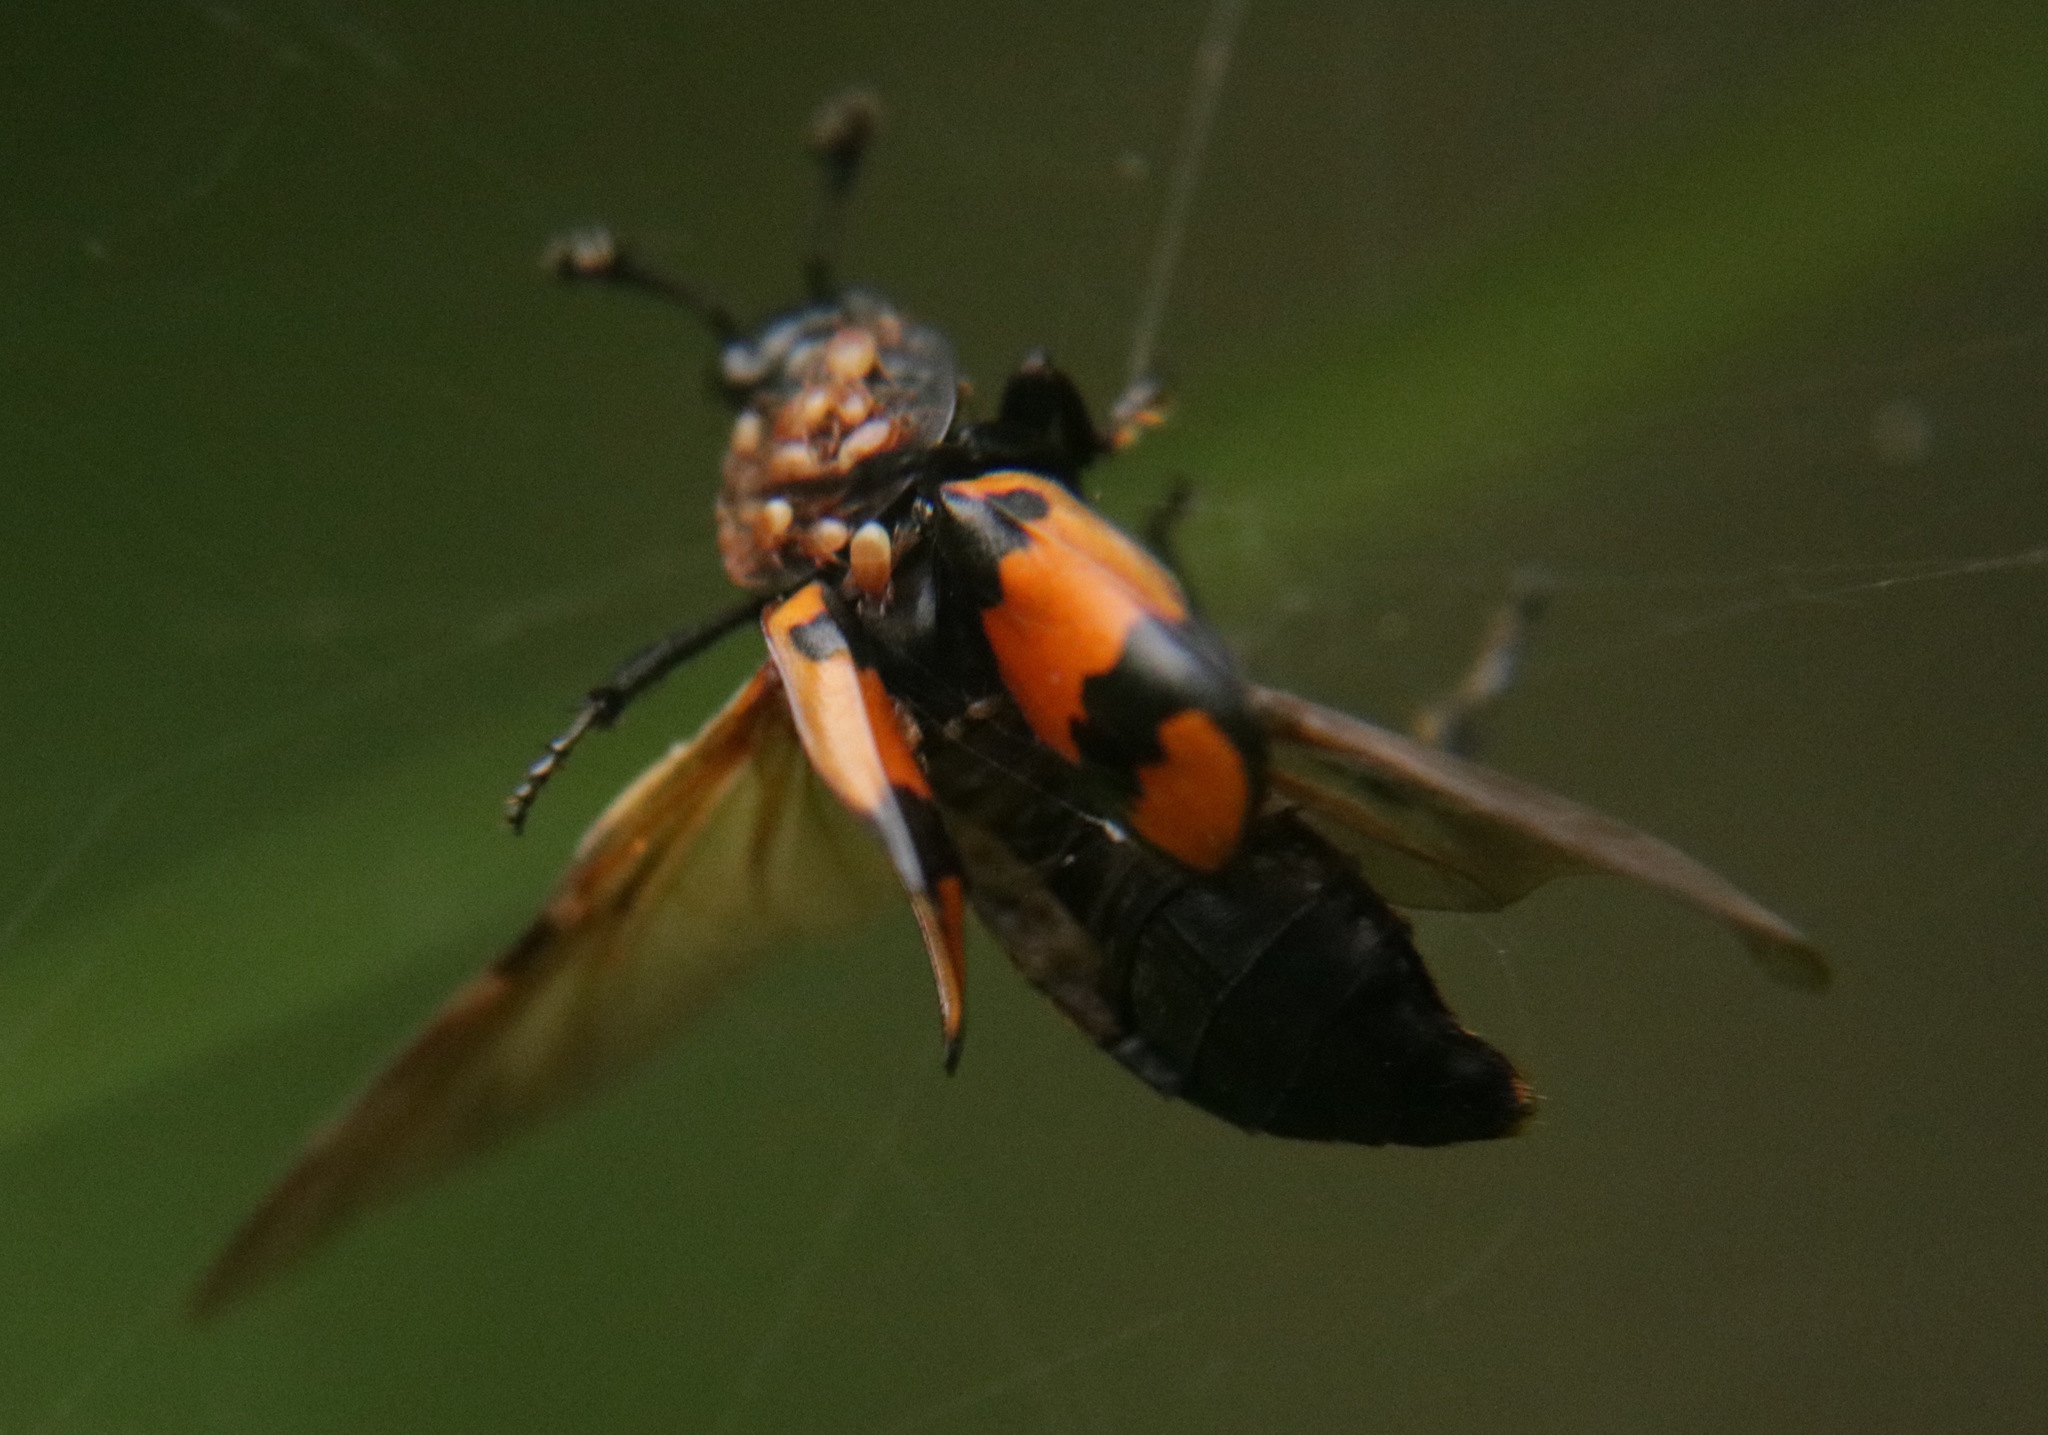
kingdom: Animalia
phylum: Arthropoda
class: Insecta
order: Coleoptera
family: Staphylinidae
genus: Nicrophorus
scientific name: Nicrophorus vespilloides
